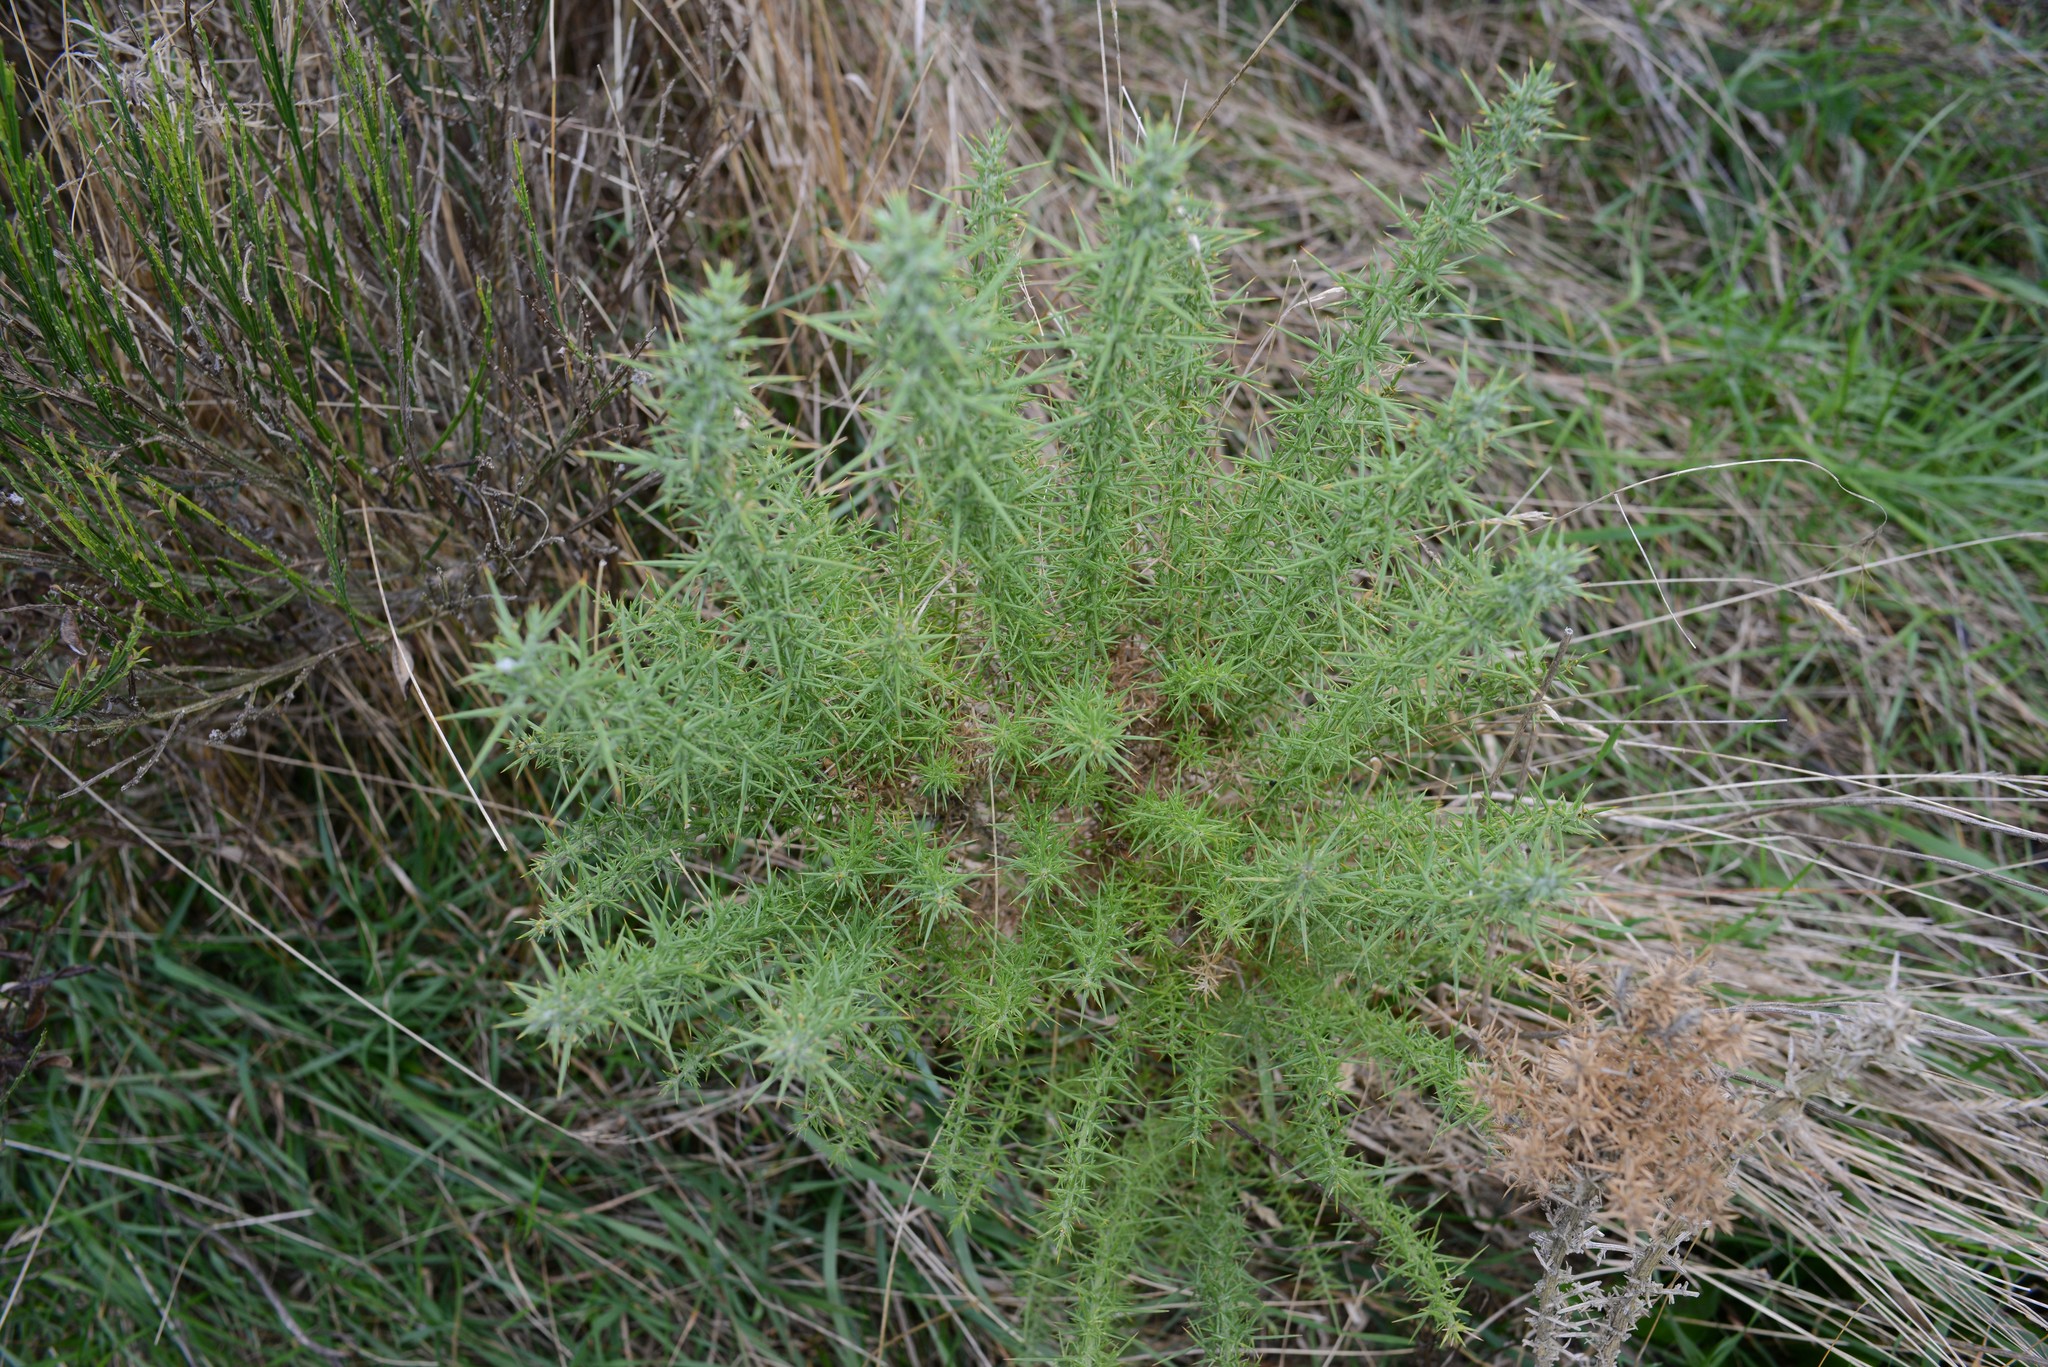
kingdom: Plantae
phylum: Tracheophyta
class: Magnoliopsida
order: Fabales
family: Fabaceae
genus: Ulex
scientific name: Ulex europaeus
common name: Common gorse
